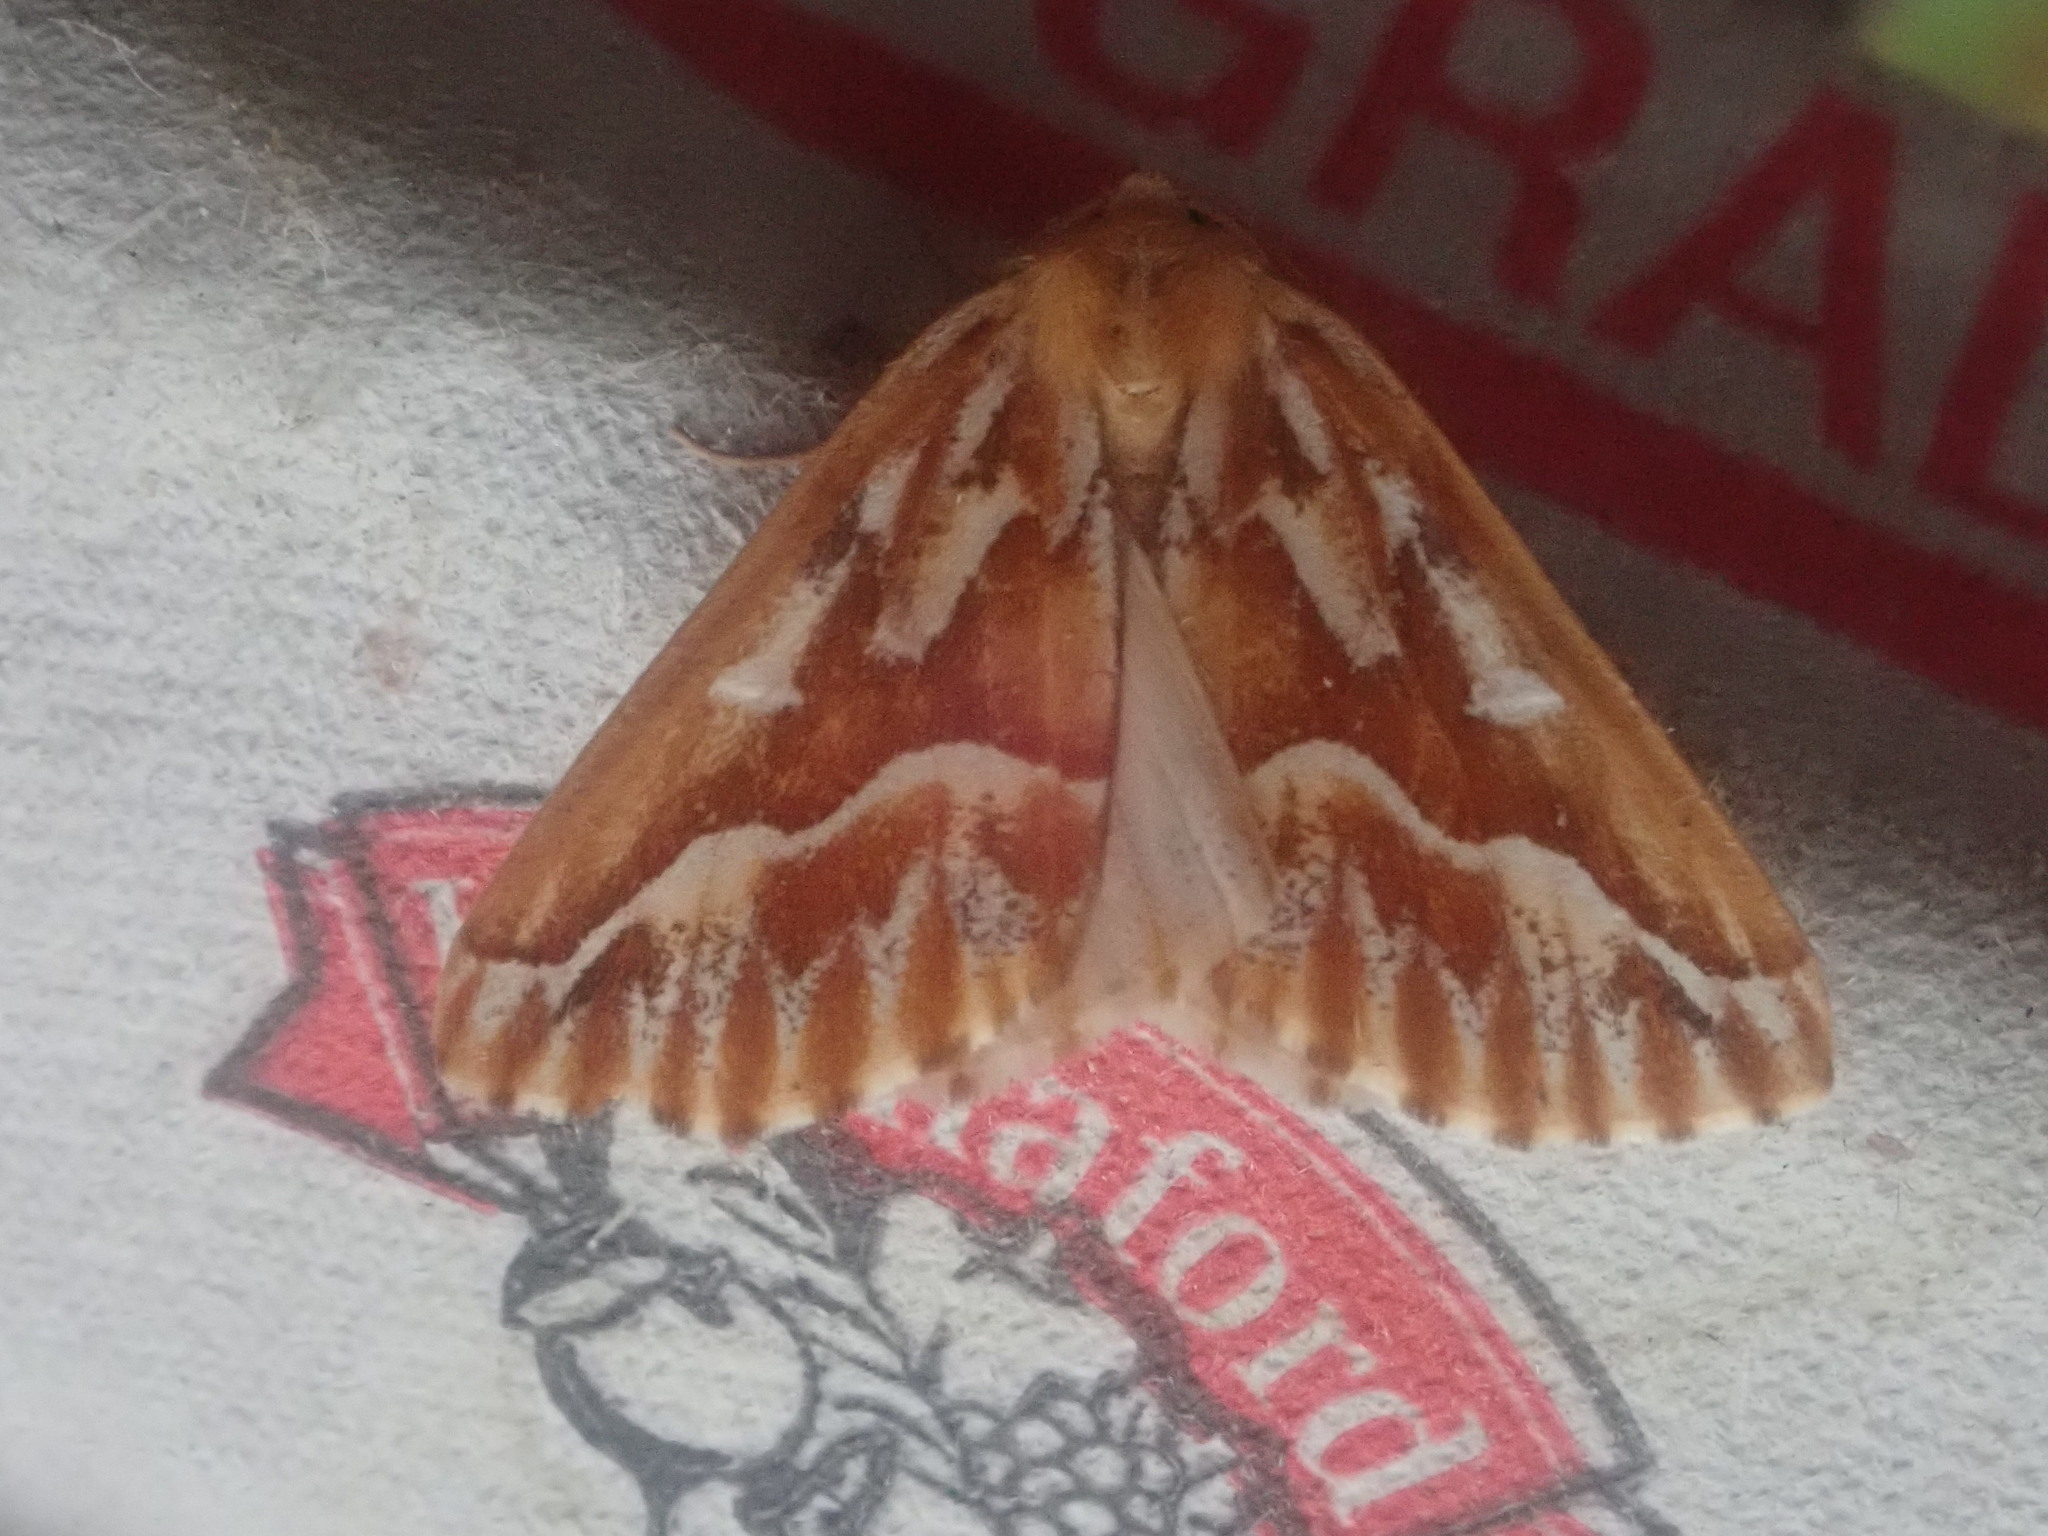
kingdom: Animalia
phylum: Arthropoda
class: Insecta
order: Lepidoptera
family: Geometridae
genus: Caripeta
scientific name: Caripeta piniata
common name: Northern pine looper moth
